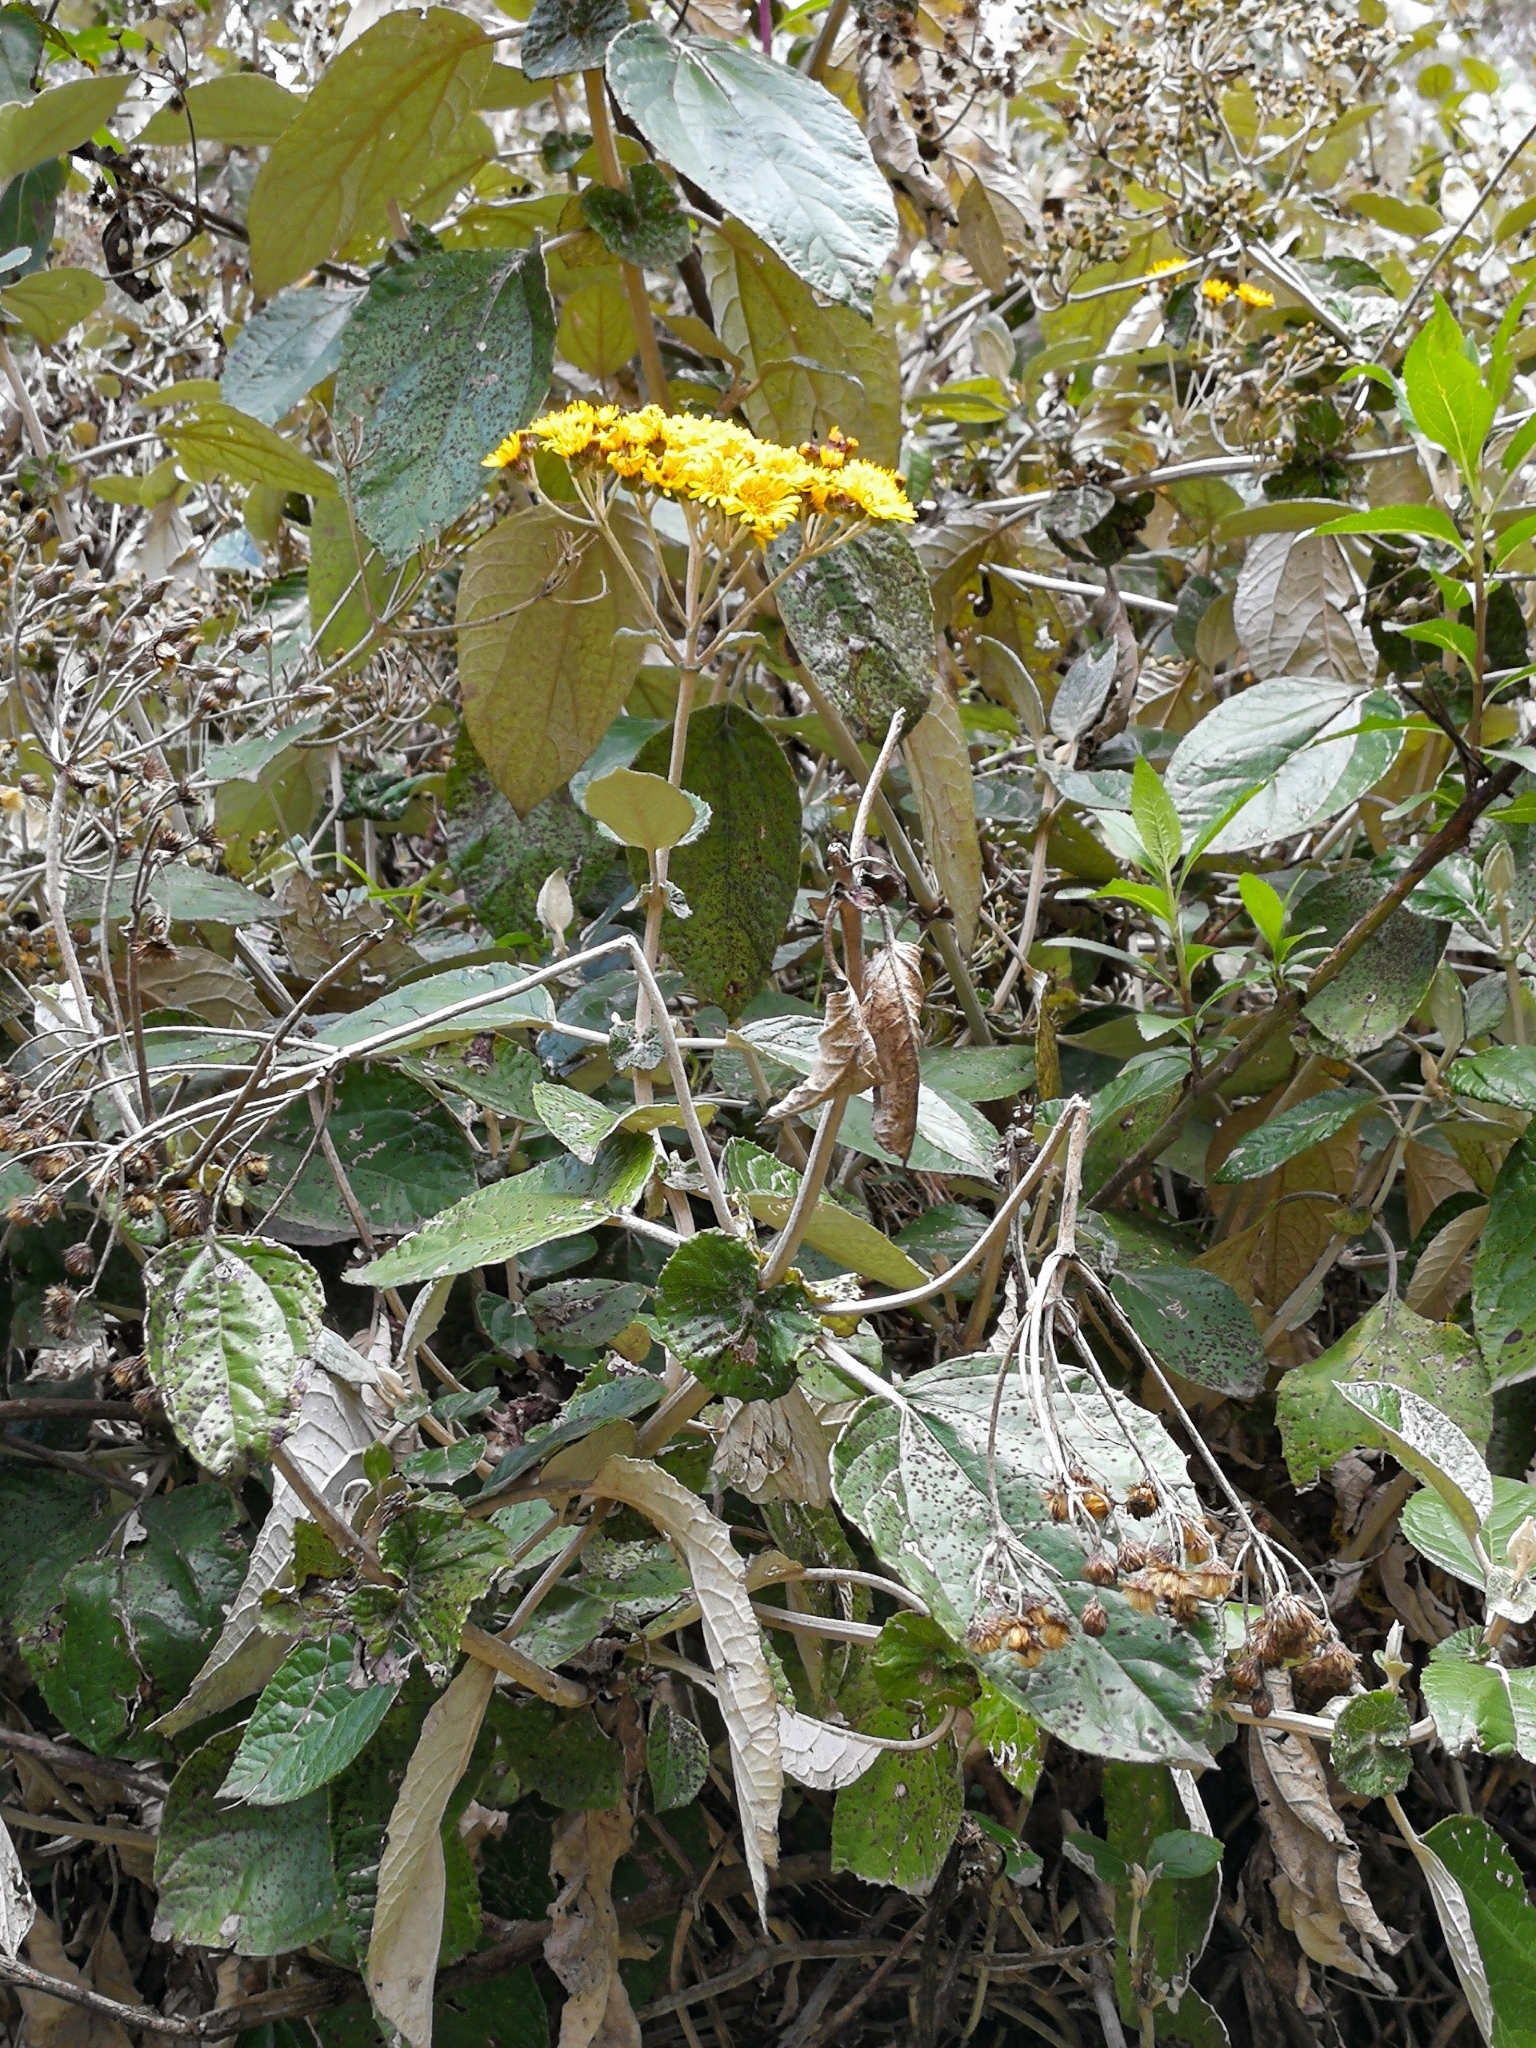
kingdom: Plantae
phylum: Tracheophyta
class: Magnoliopsida
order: Asterales
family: Asteraceae
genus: Liabum
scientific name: Liabum igniarium
